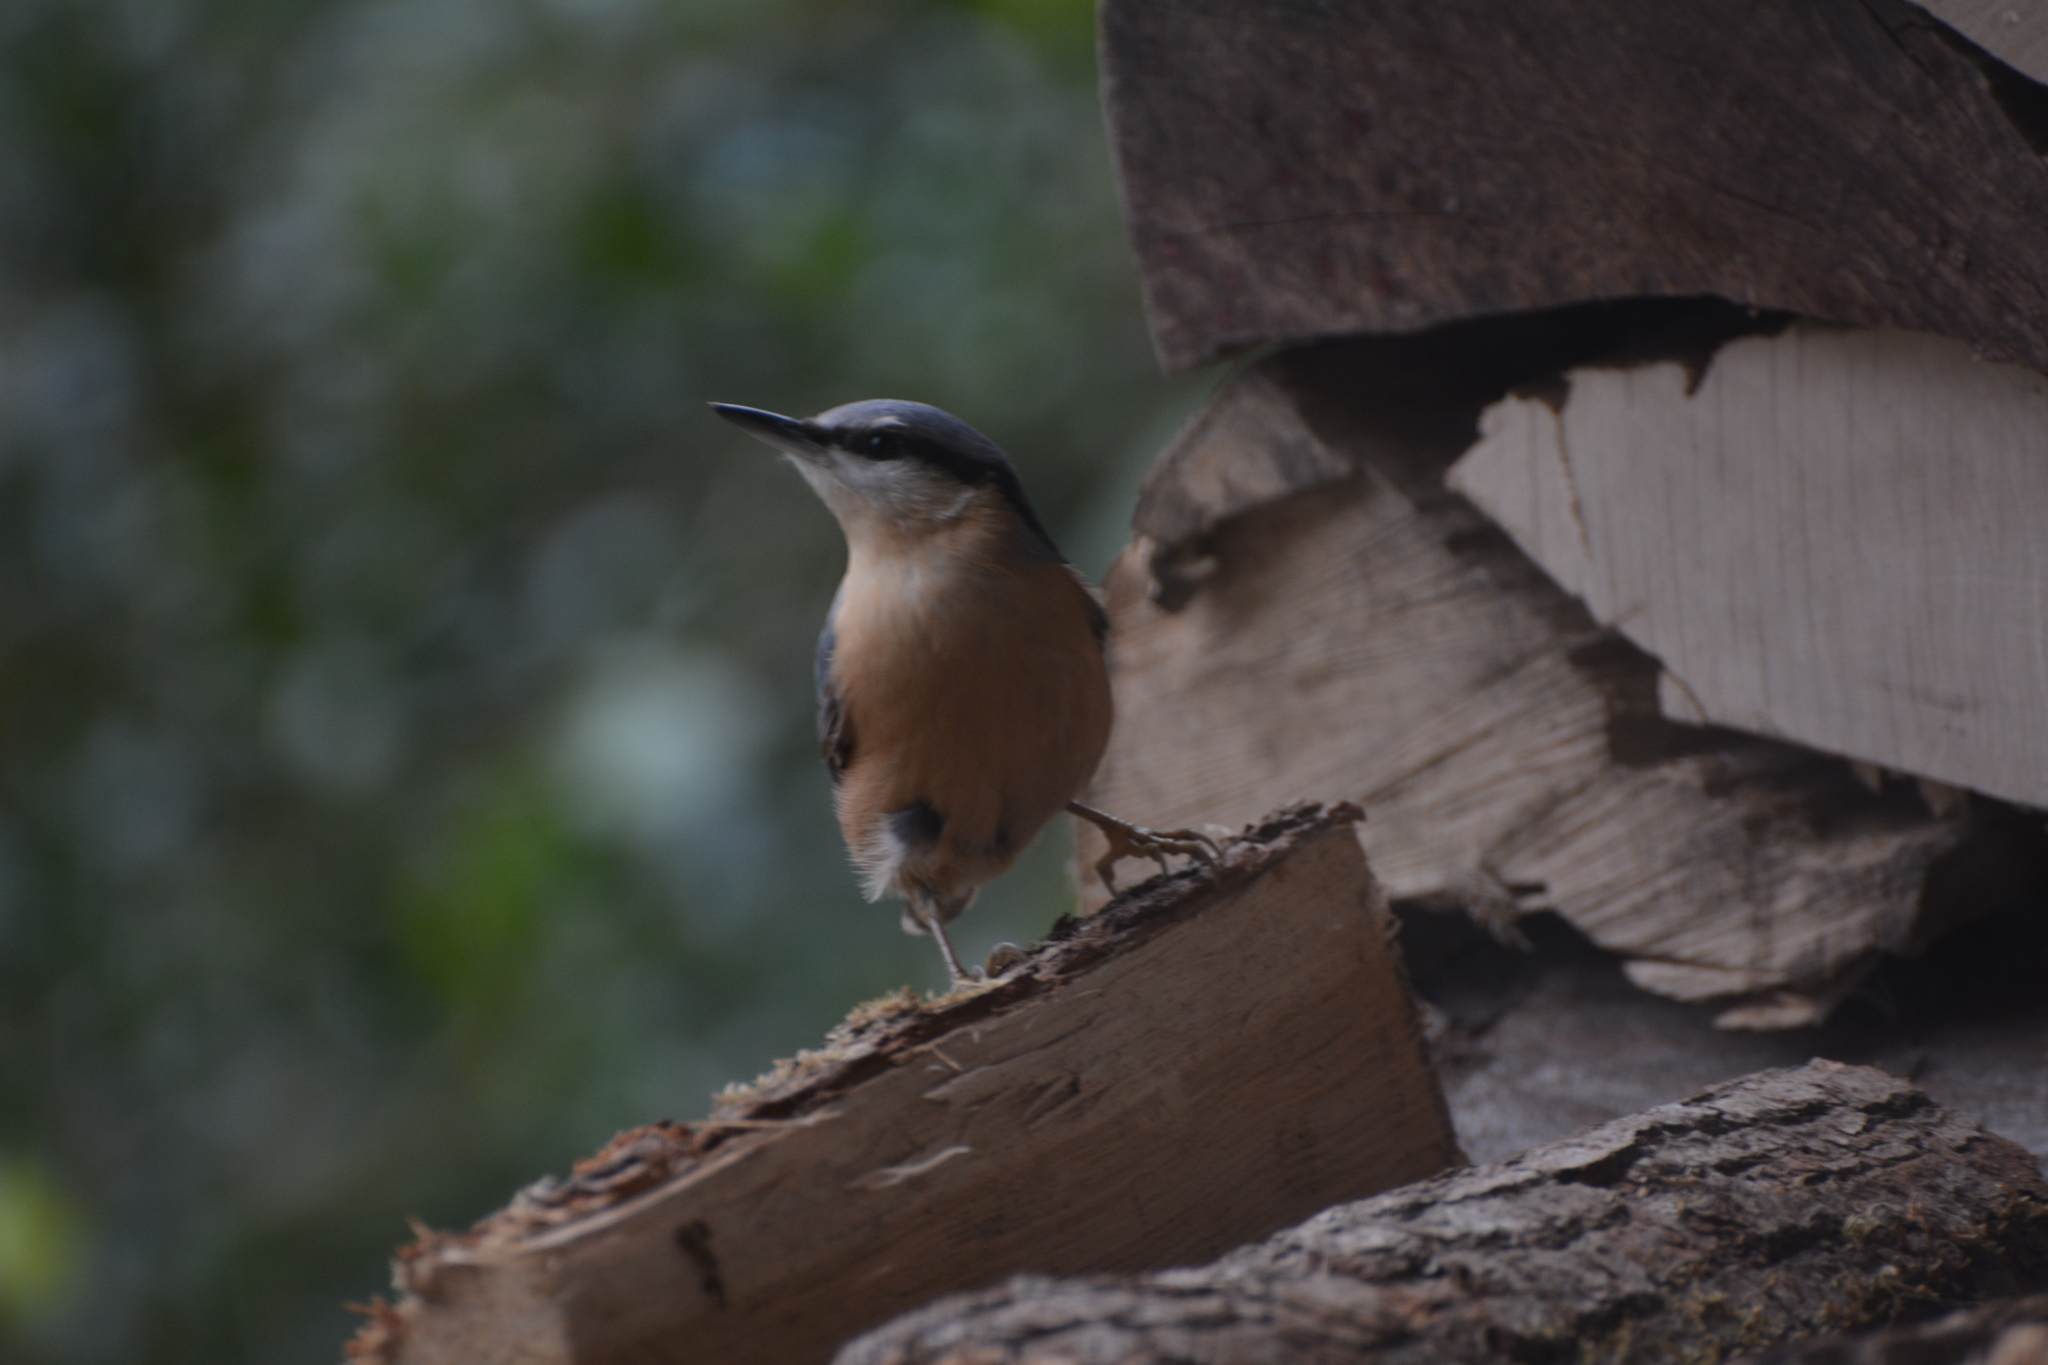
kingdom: Animalia
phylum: Chordata
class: Aves
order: Passeriformes
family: Sittidae
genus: Sitta
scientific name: Sitta europaea
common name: Eurasian nuthatch
